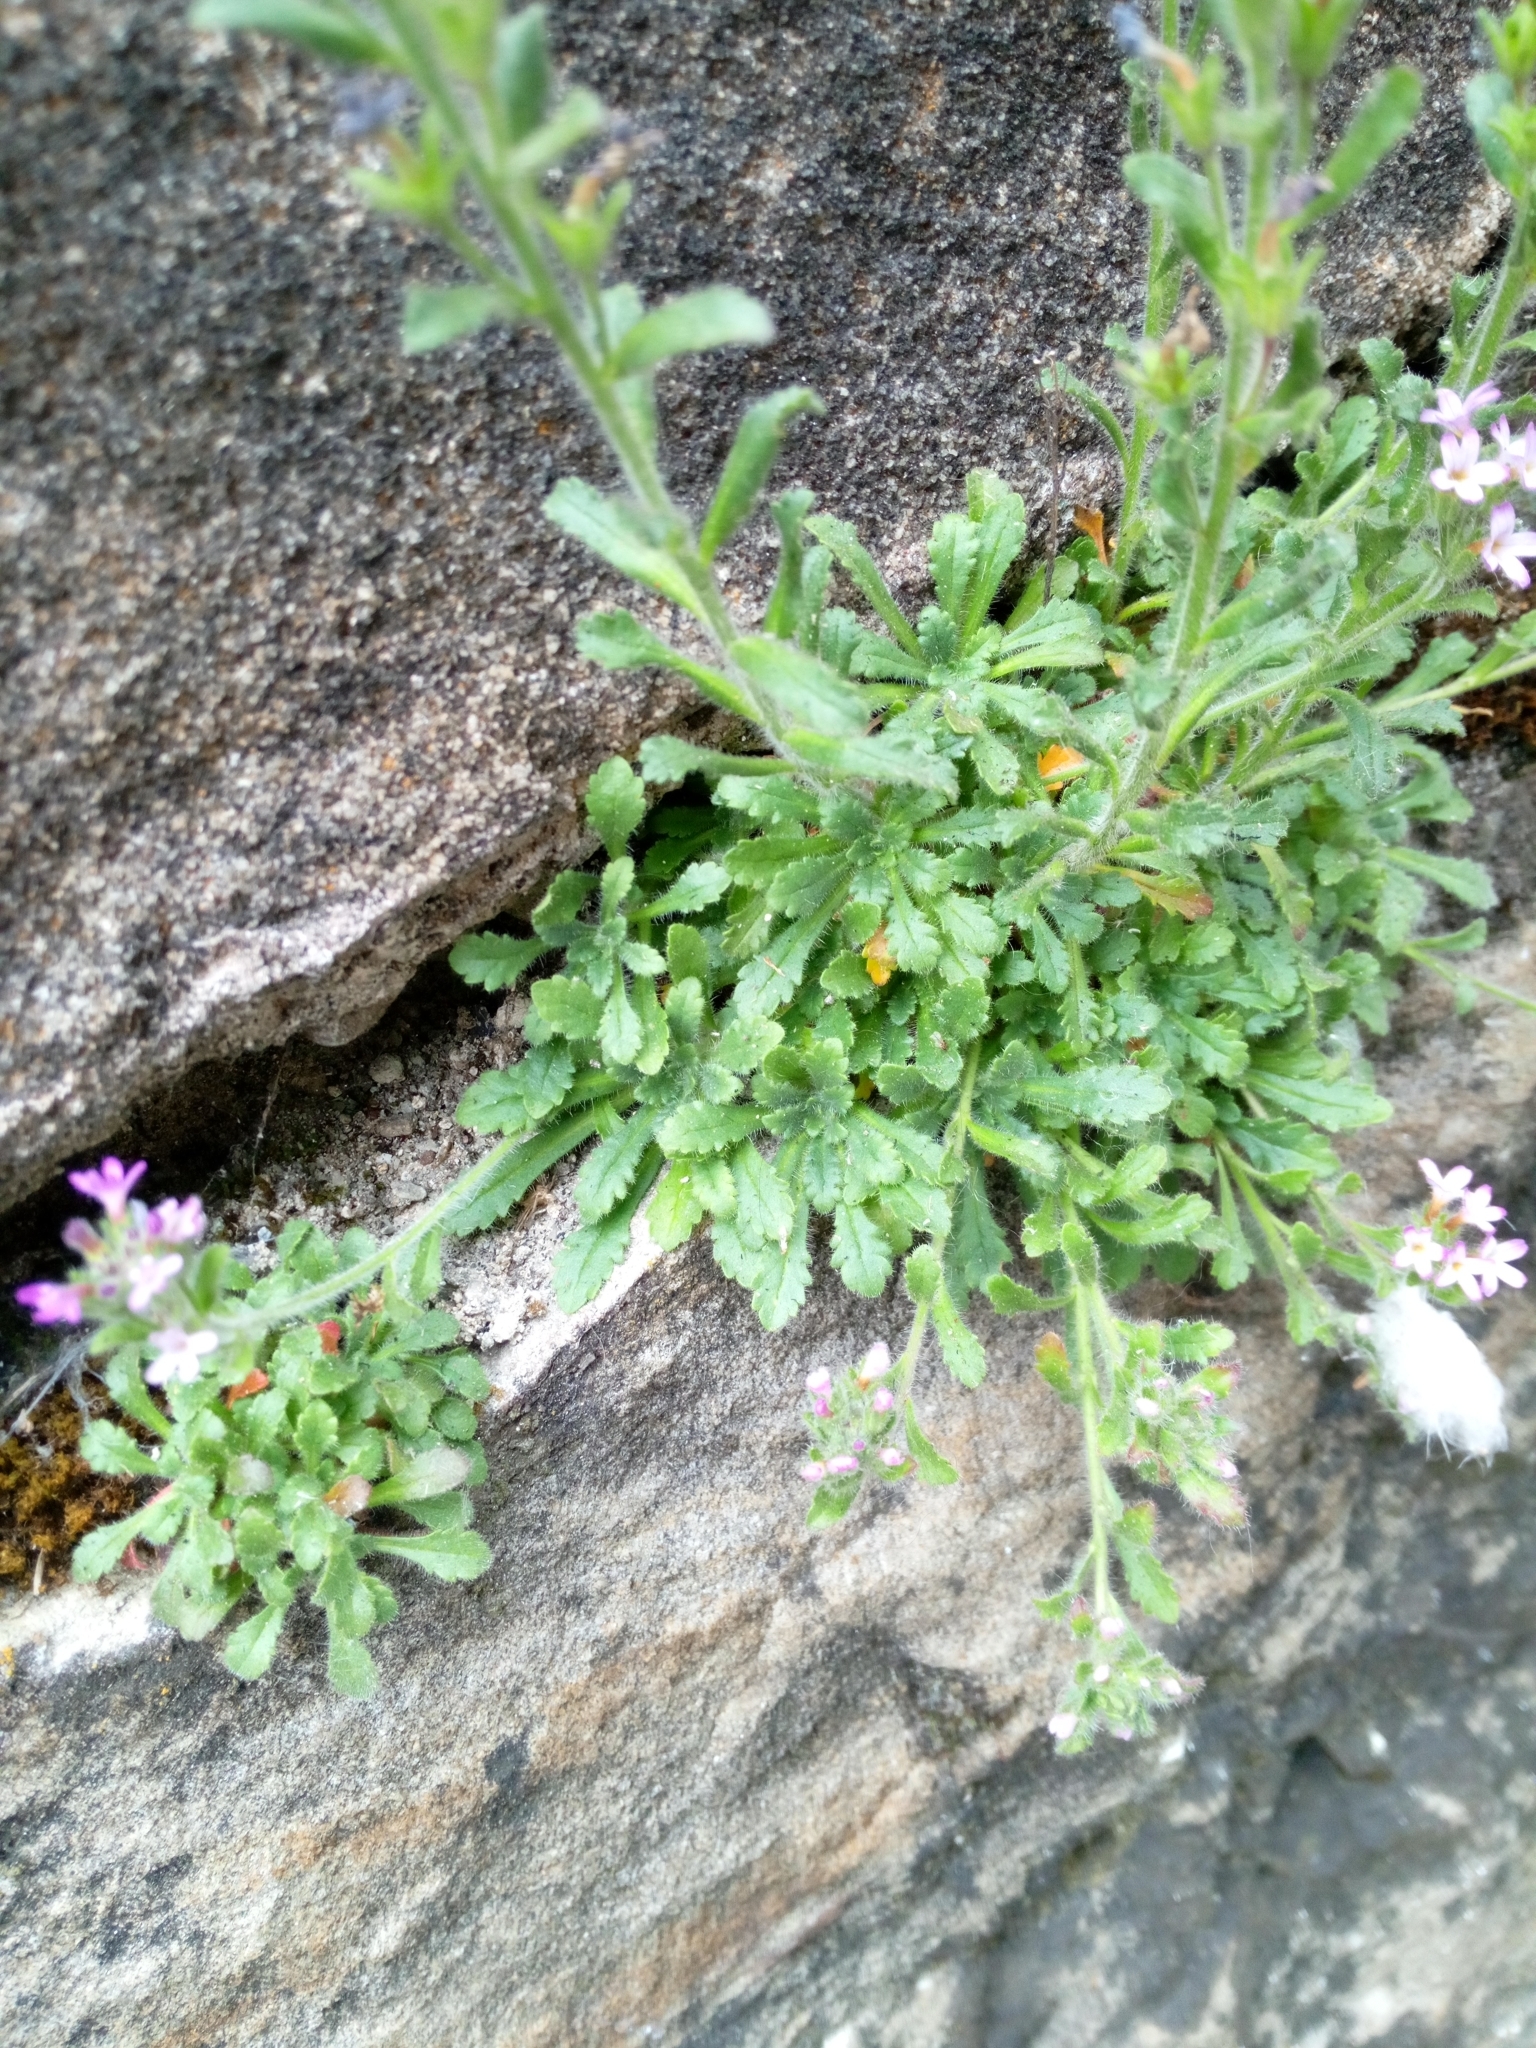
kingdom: Plantae
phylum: Tracheophyta
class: Magnoliopsida
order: Lamiales
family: Plantaginaceae
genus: Erinus
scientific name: Erinus alpinus
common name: Fairy foxglove
